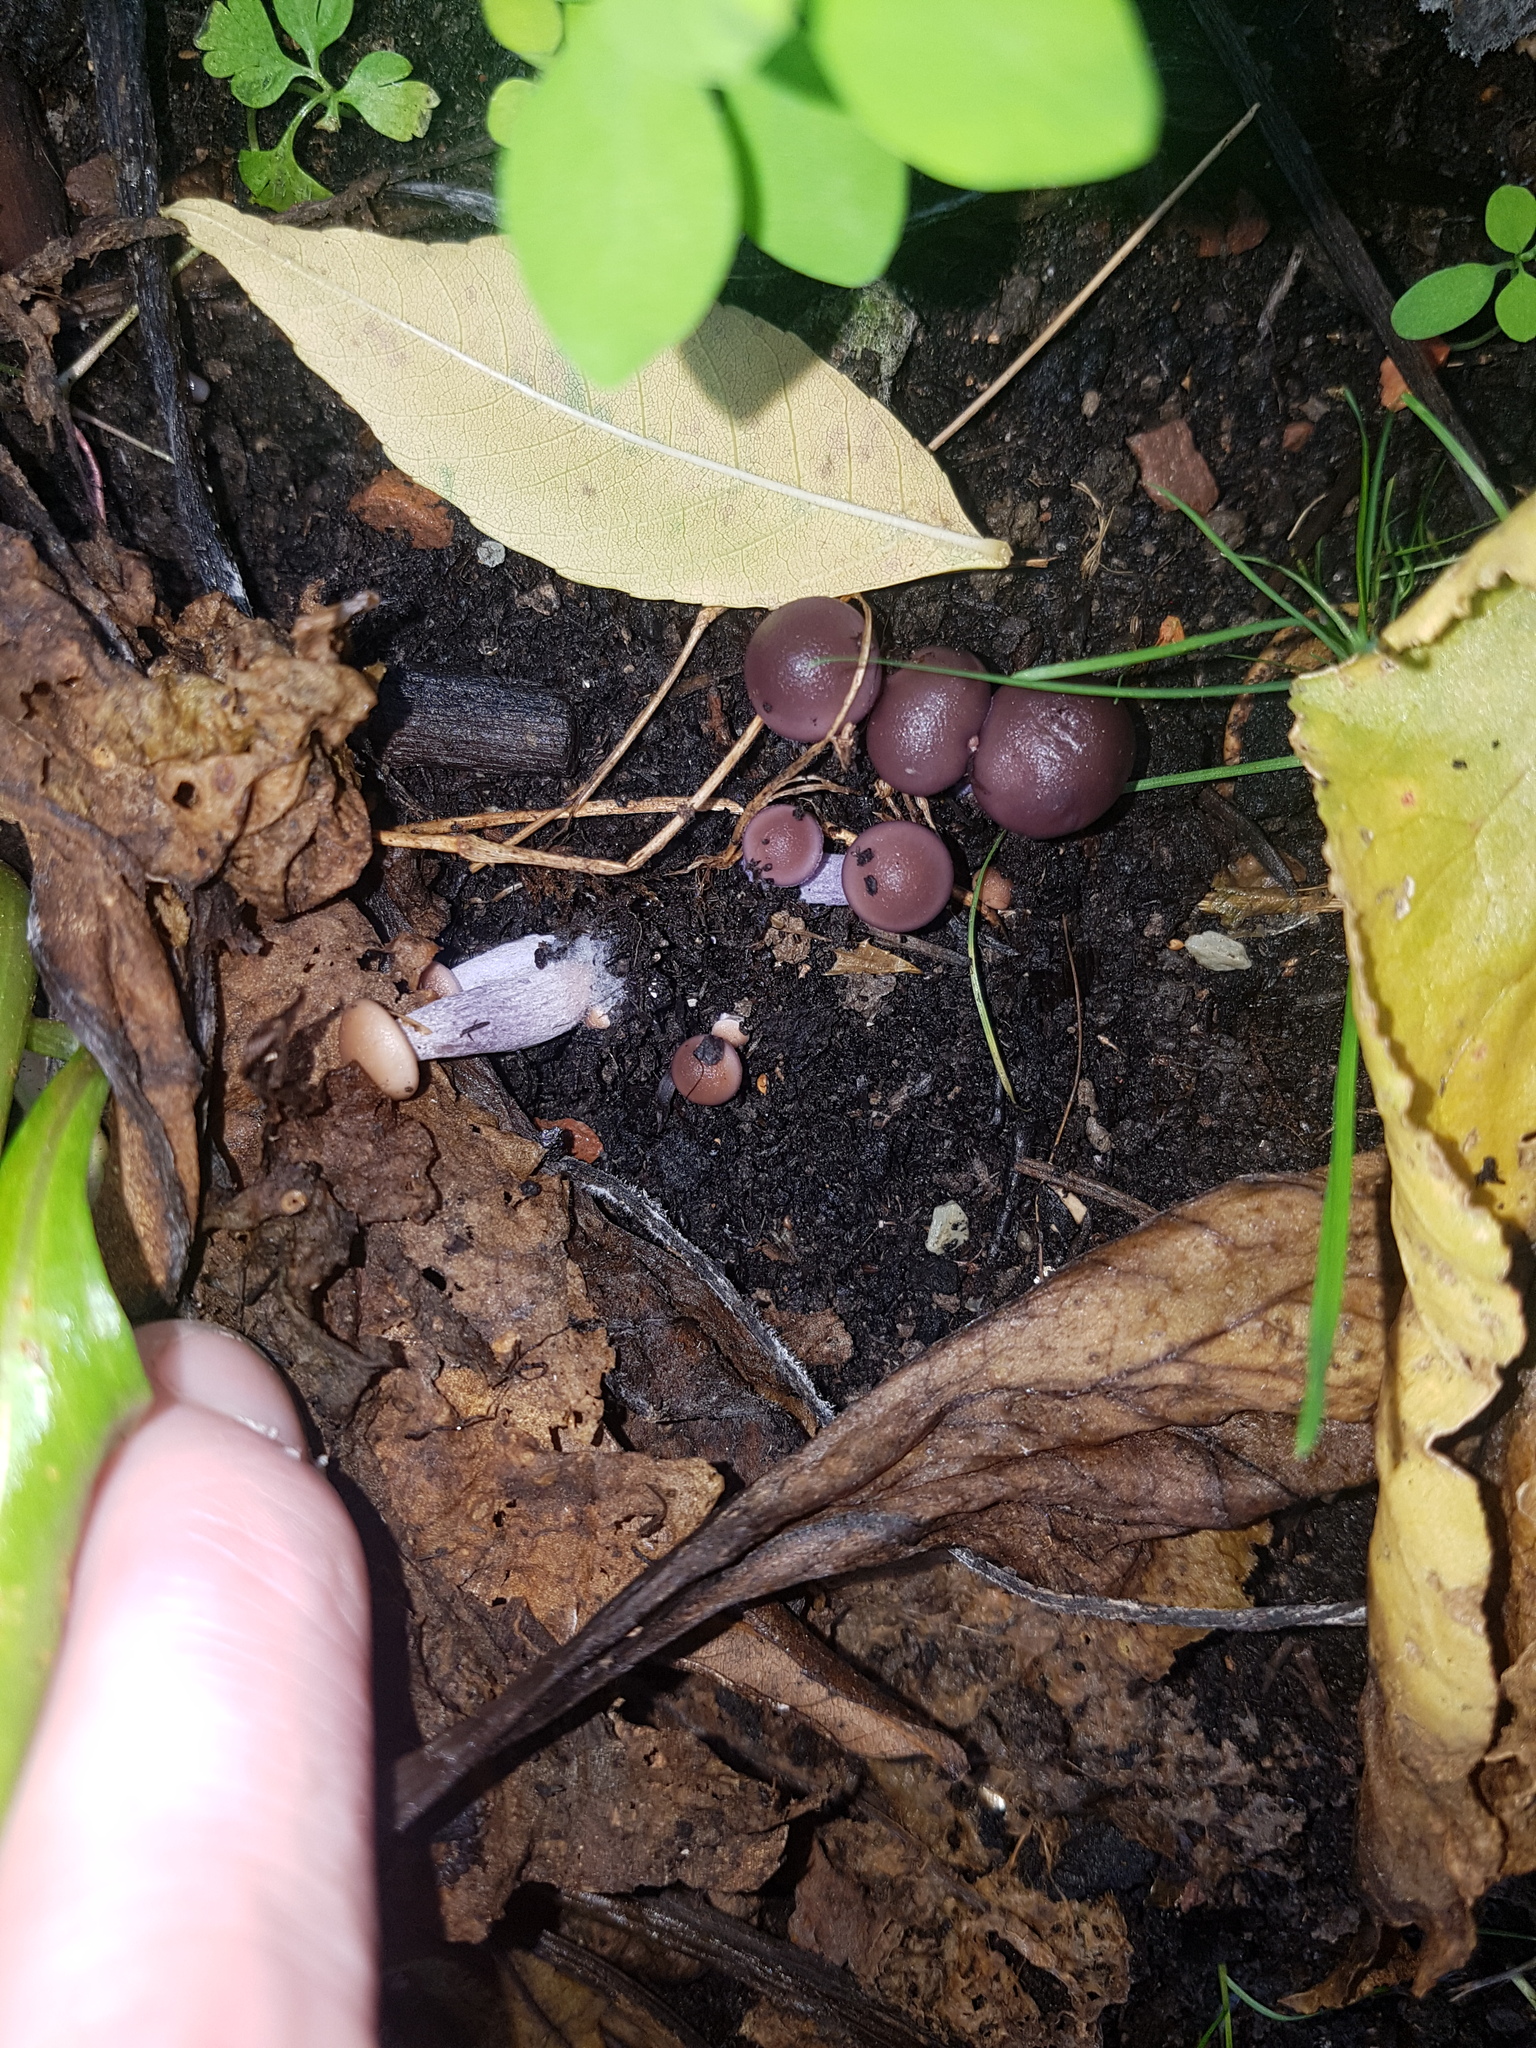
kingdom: Fungi
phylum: Basidiomycota
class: Agaricomycetes
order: Agaricales
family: Tricholomataceae
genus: Collybia
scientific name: Collybia
